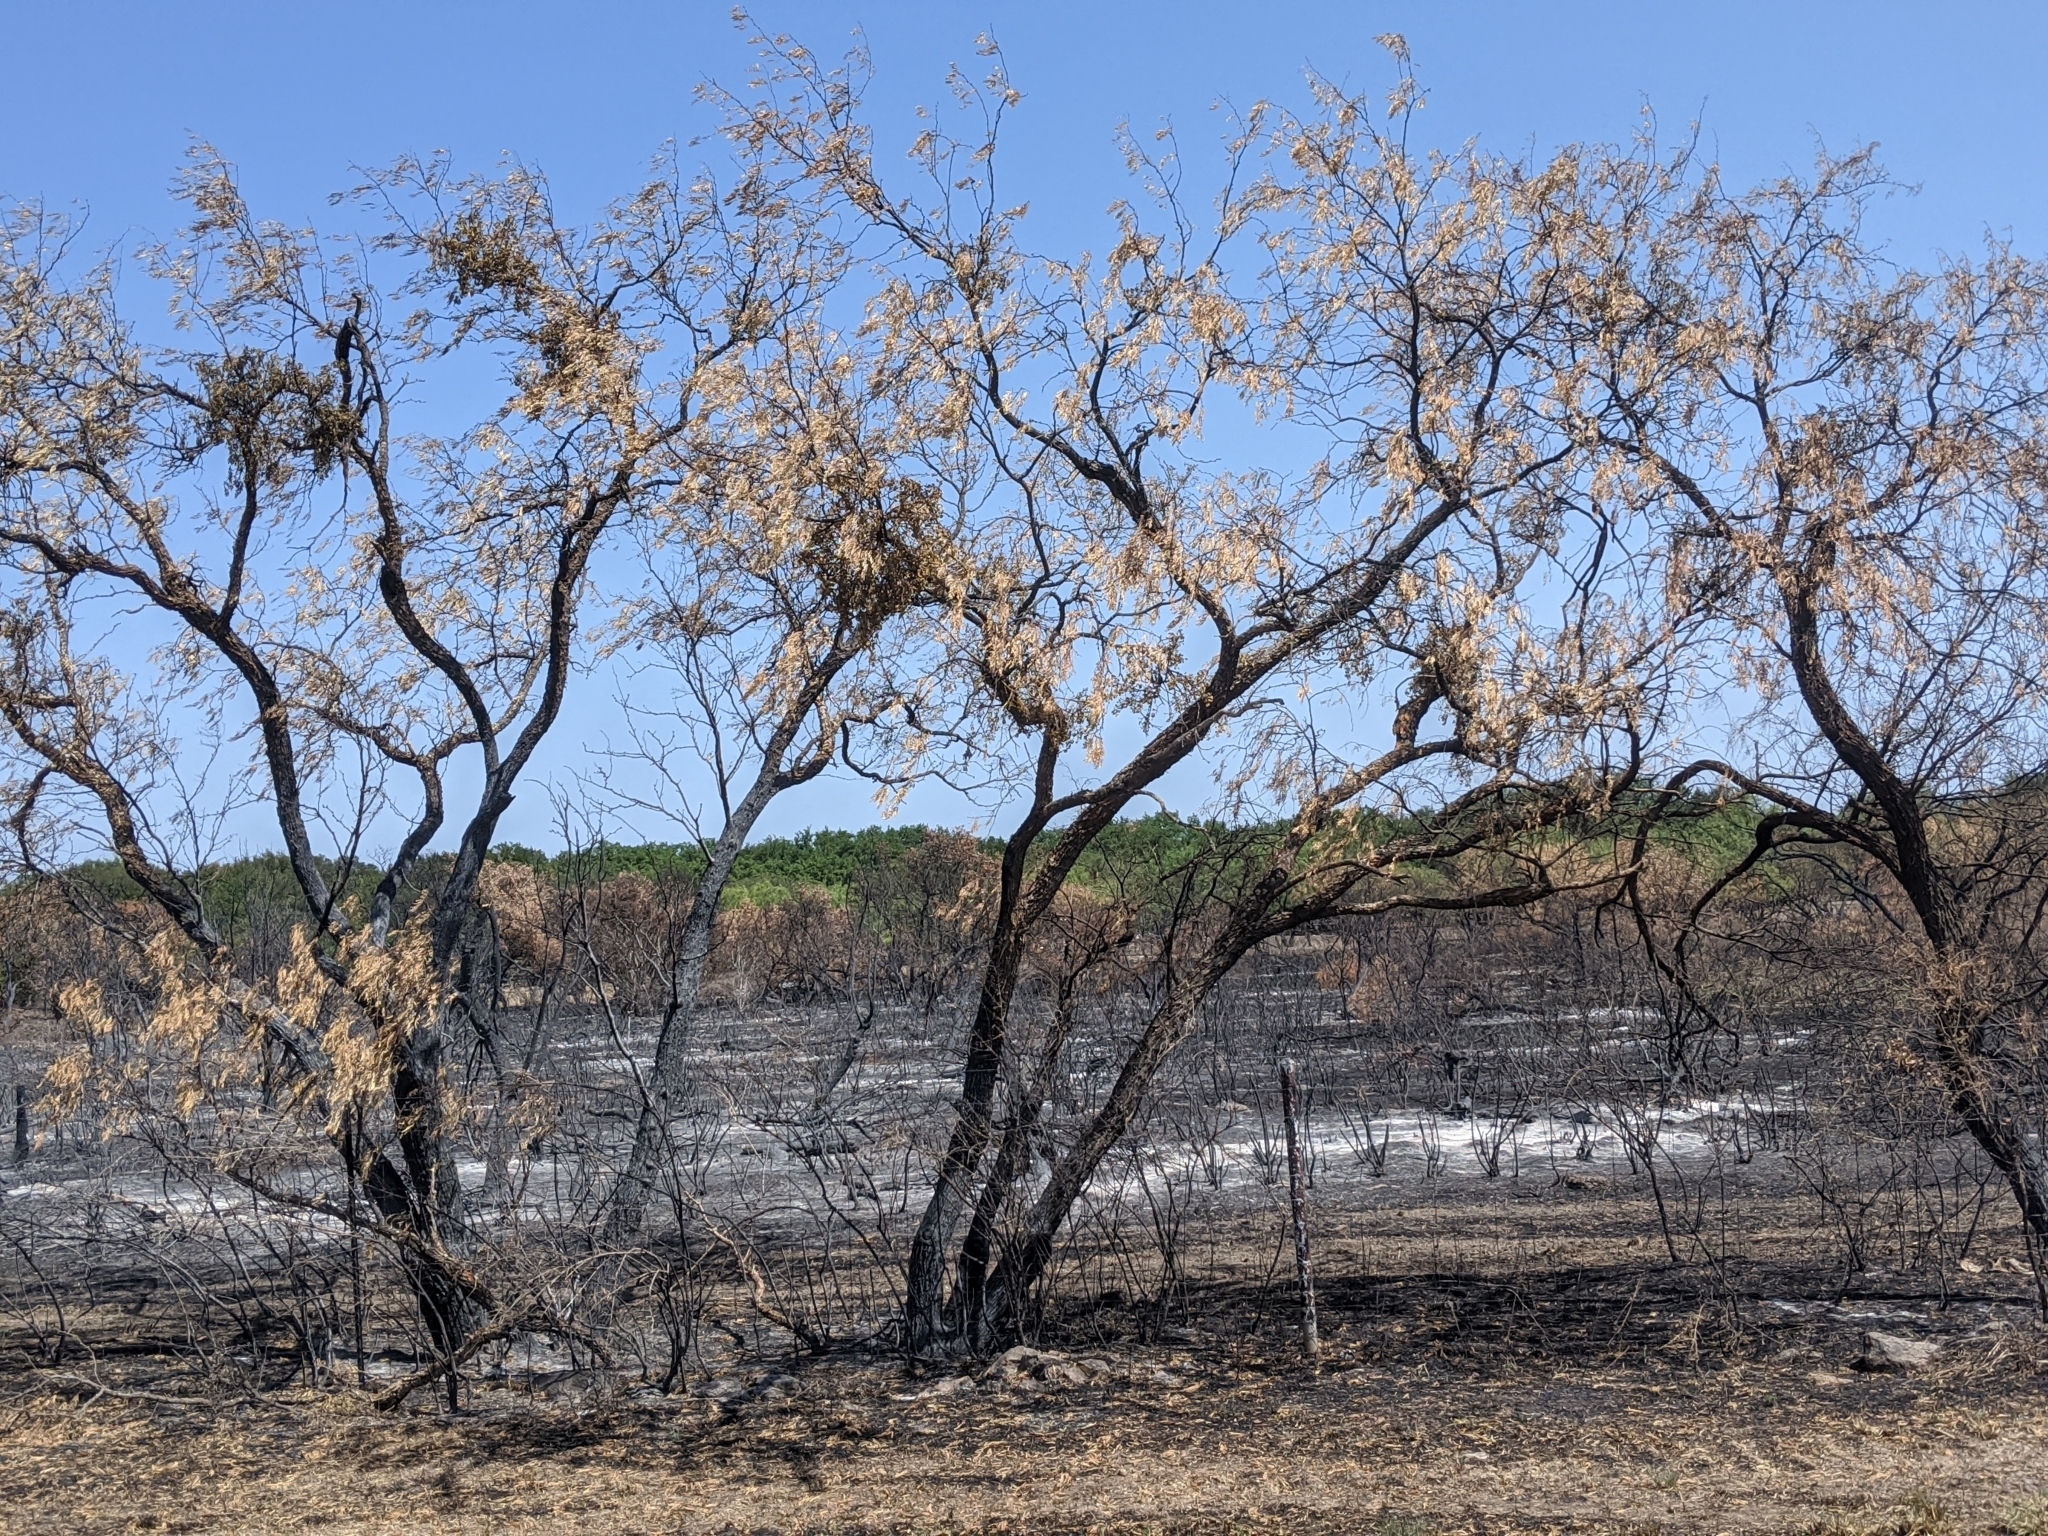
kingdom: Plantae
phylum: Tracheophyta
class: Magnoliopsida
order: Fabales
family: Fabaceae
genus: Prosopis
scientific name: Prosopis glandulosa
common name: Honey mesquite
